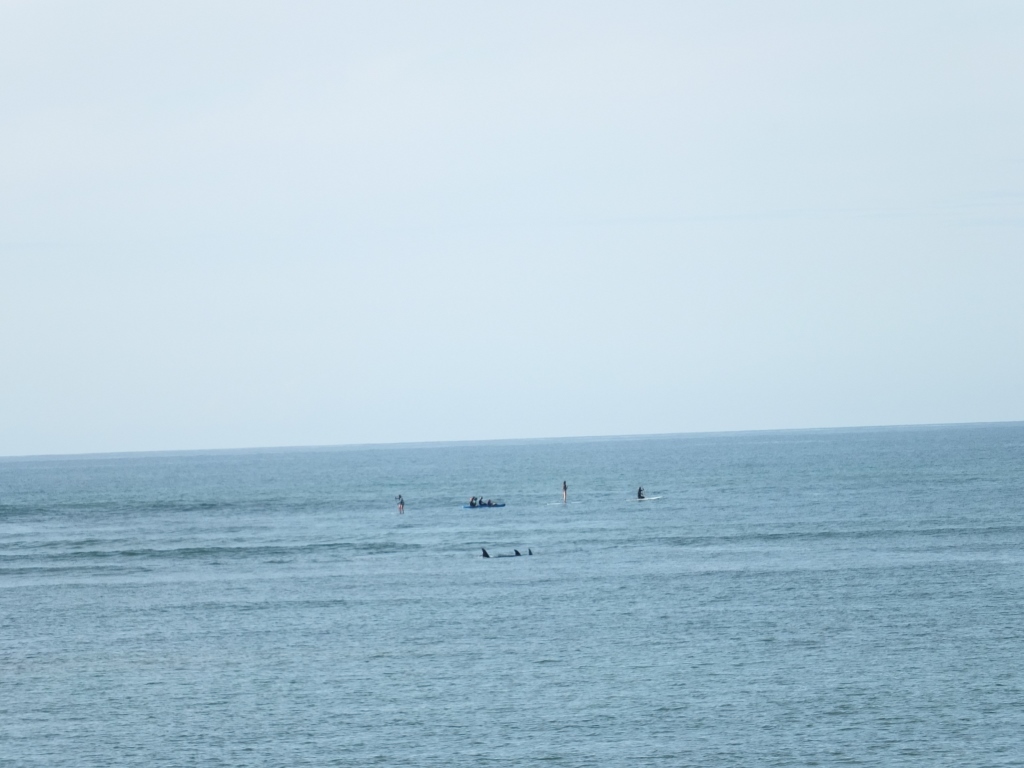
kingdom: Animalia
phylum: Chordata
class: Mammalia
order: Cetacea
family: Delphinidae
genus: Orcinus
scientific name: Orcinus orca
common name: Killer whale
